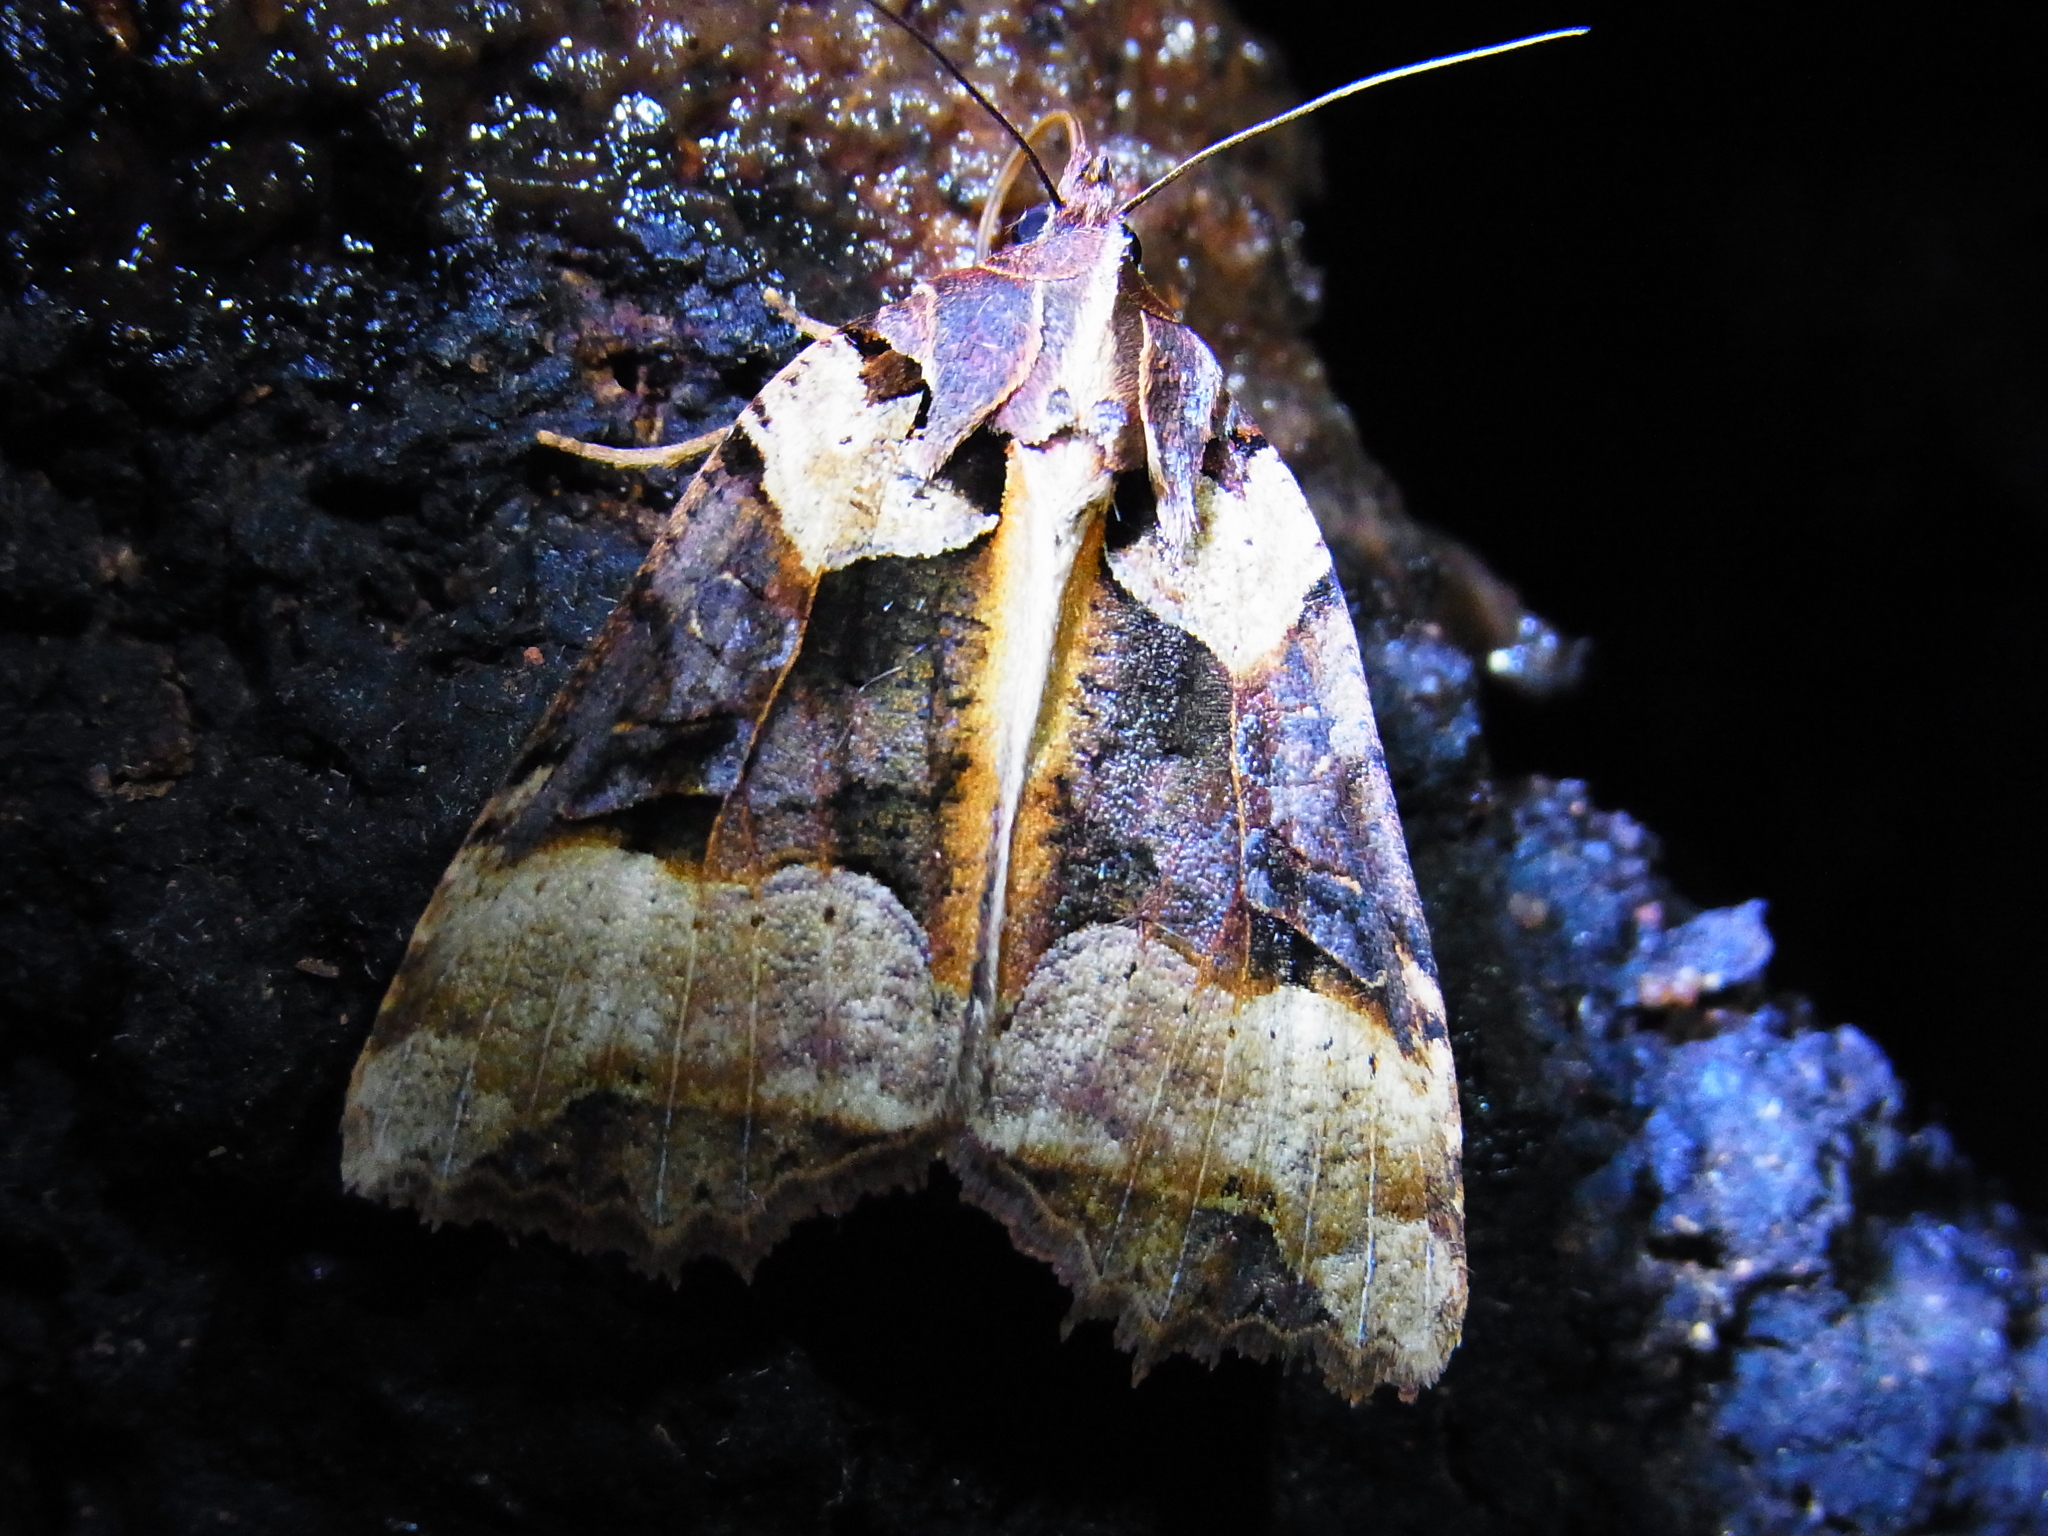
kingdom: Animalia
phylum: Arthropoda
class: Insecta
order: Lepidoptera
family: Noctuidae
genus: Orthogonia
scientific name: Orthogonia sera
